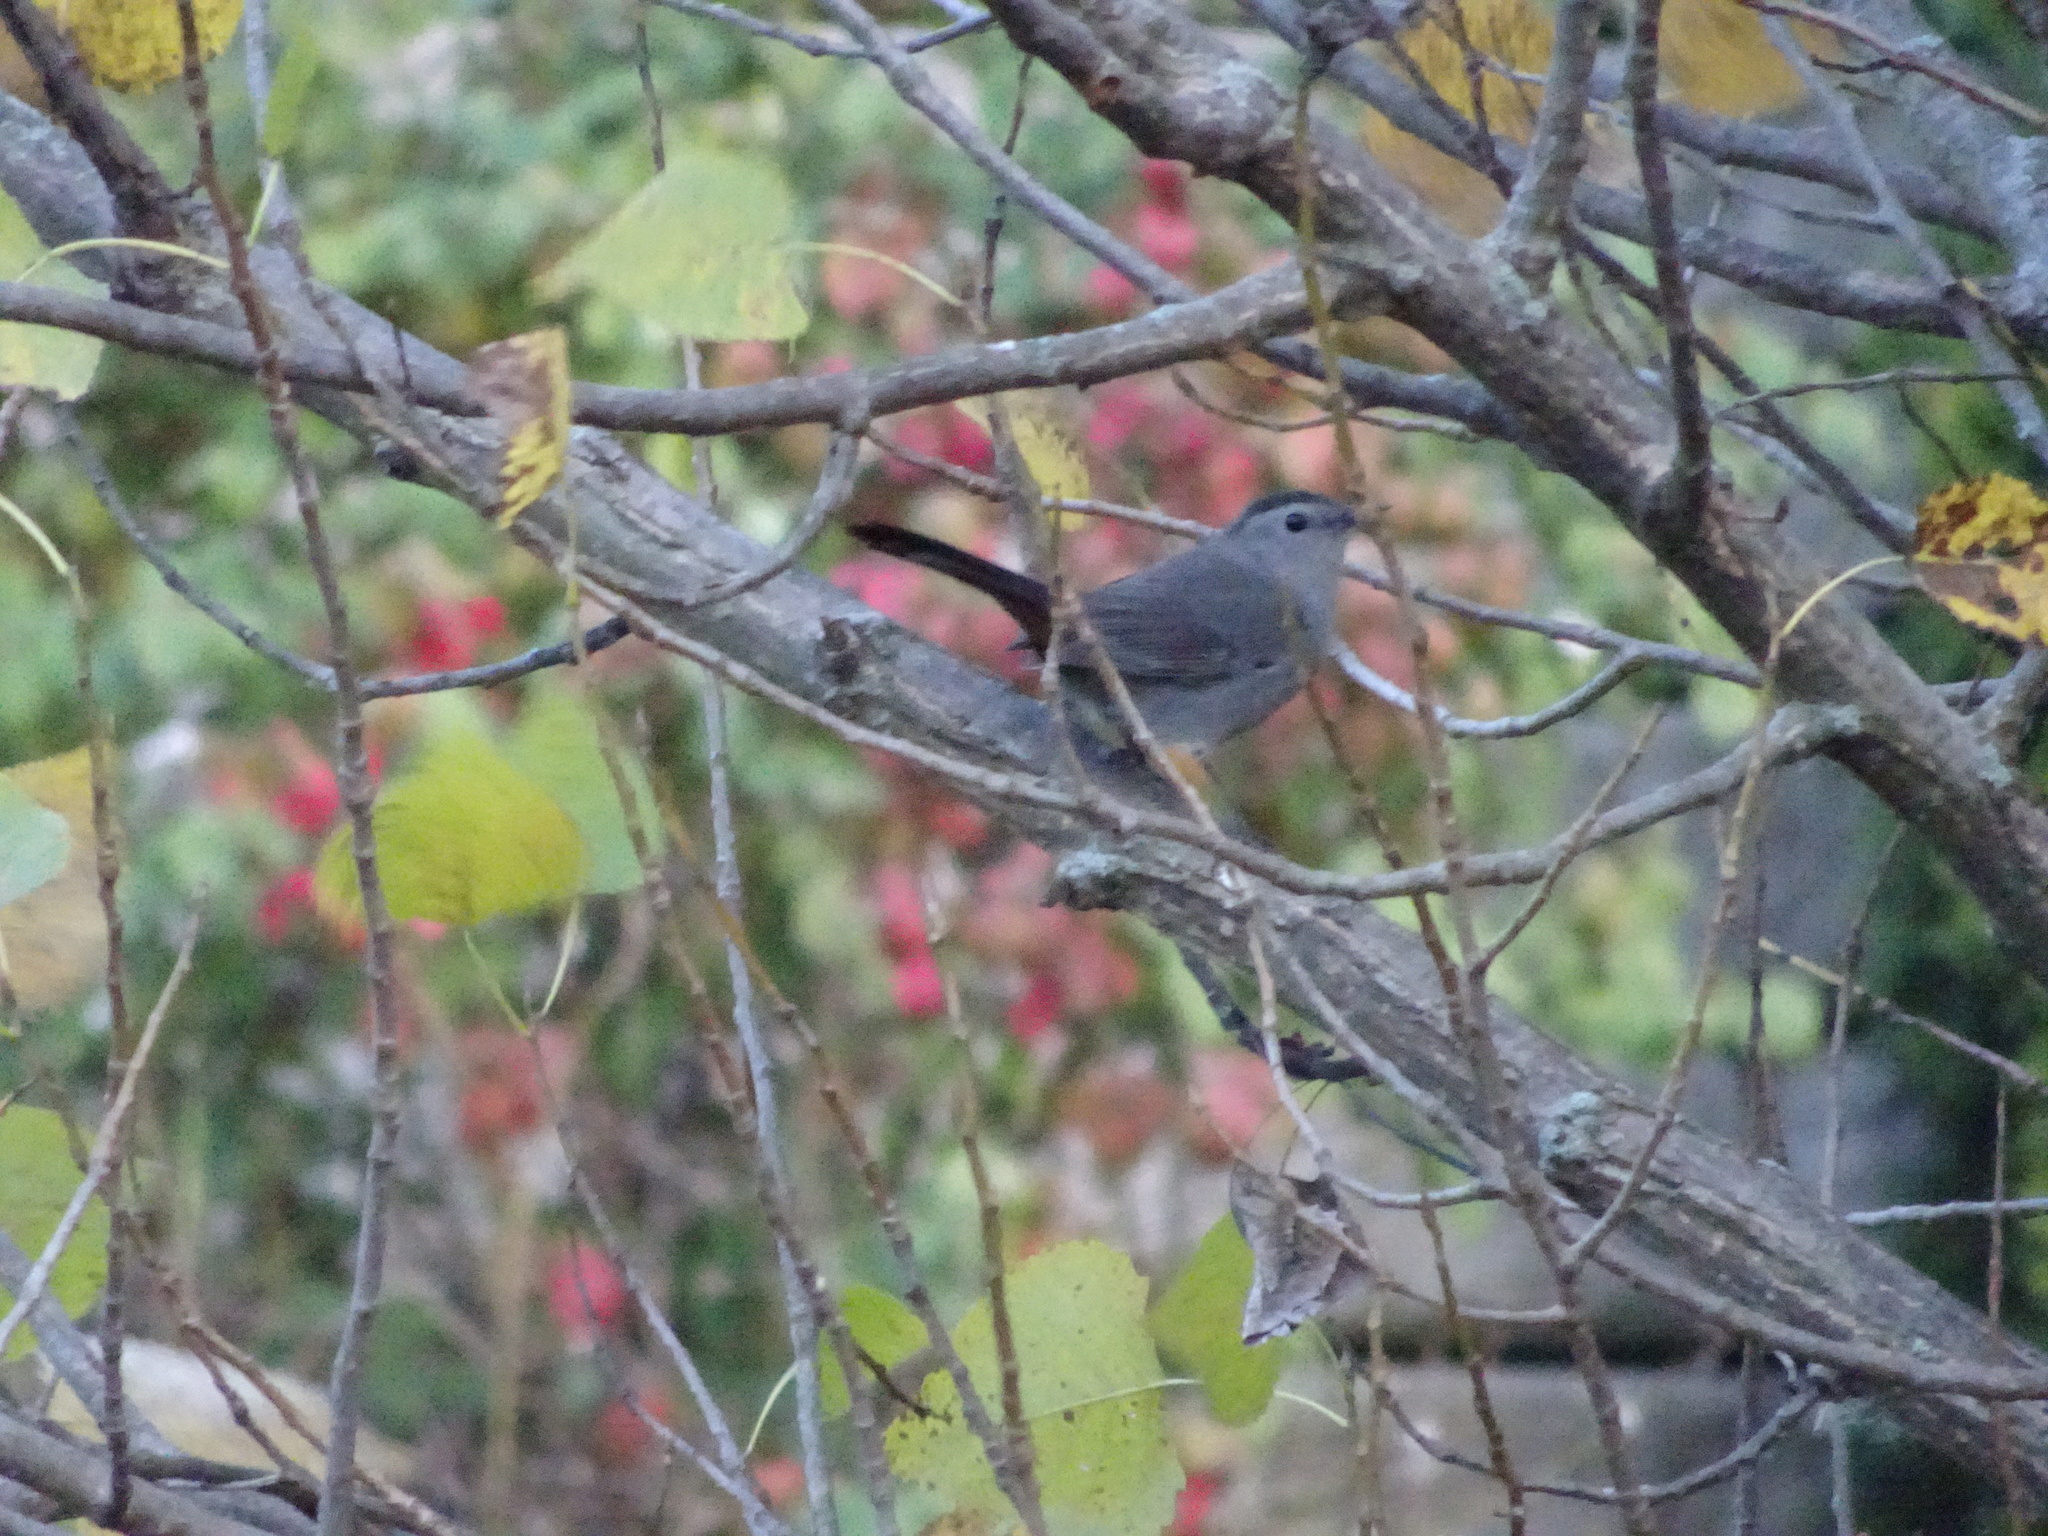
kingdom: Animalia
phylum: Chordata
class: Aves
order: Passeriformes
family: Mimidae
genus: Dumetella
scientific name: Dumetella carolinensis
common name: Gray catbird
